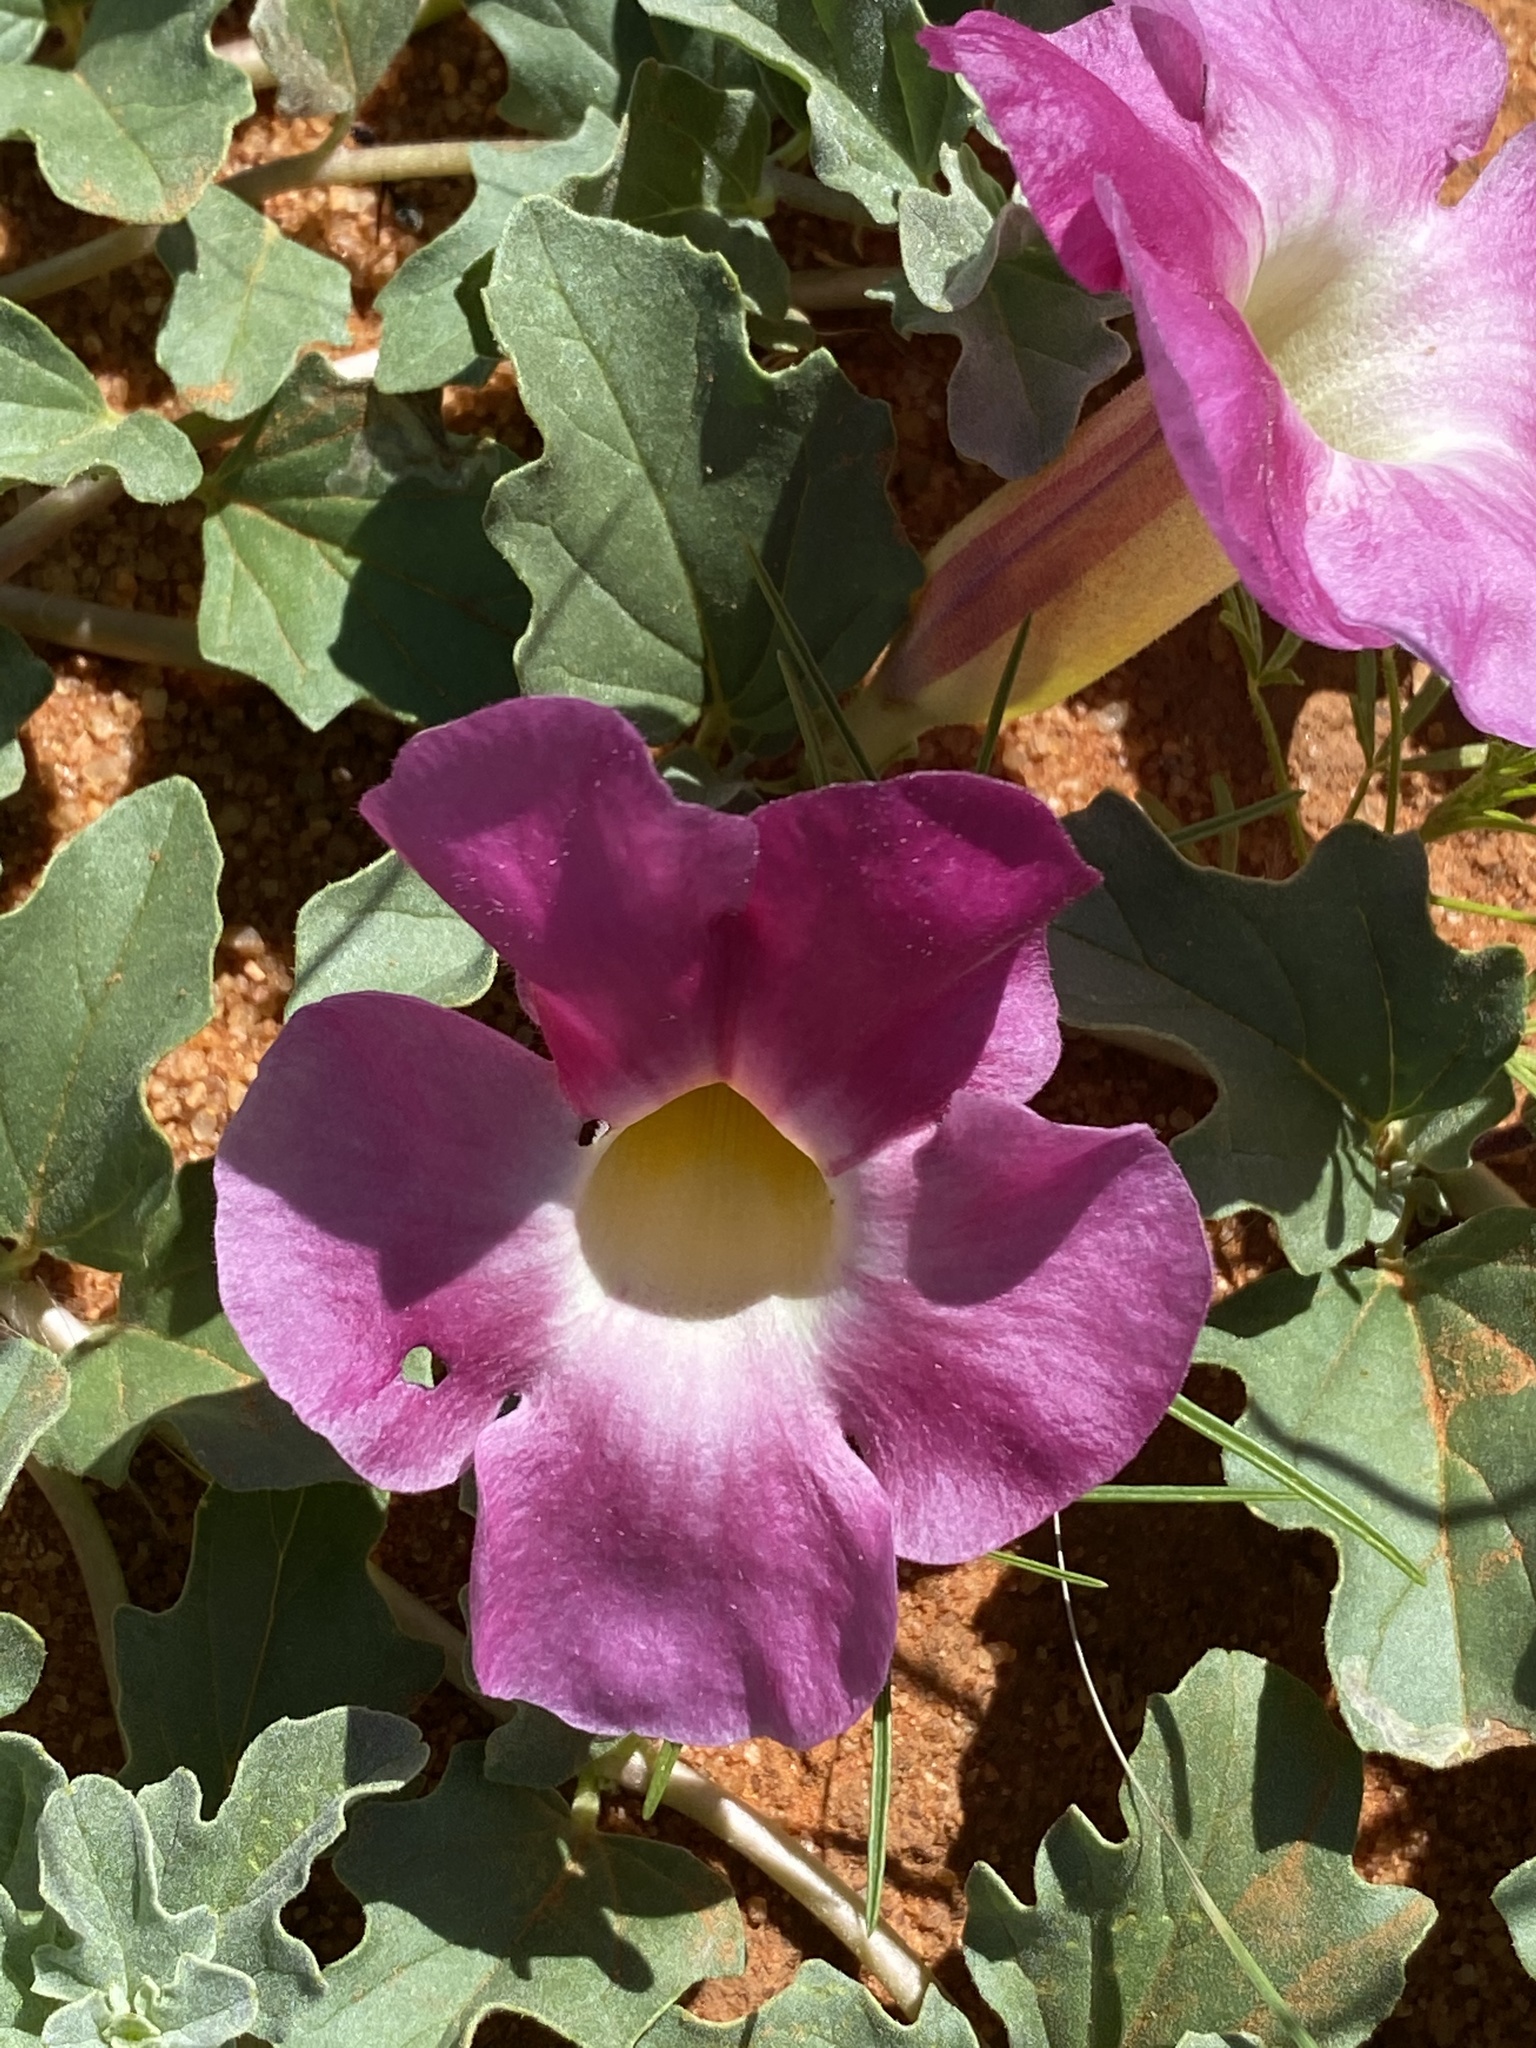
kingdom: Plantae
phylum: Tracheophyta
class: Magnoliopsida
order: Lamiales
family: Pedaliaceae
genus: Harpagophytum
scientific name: Harpagophytum procumbens
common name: Grappleplant
